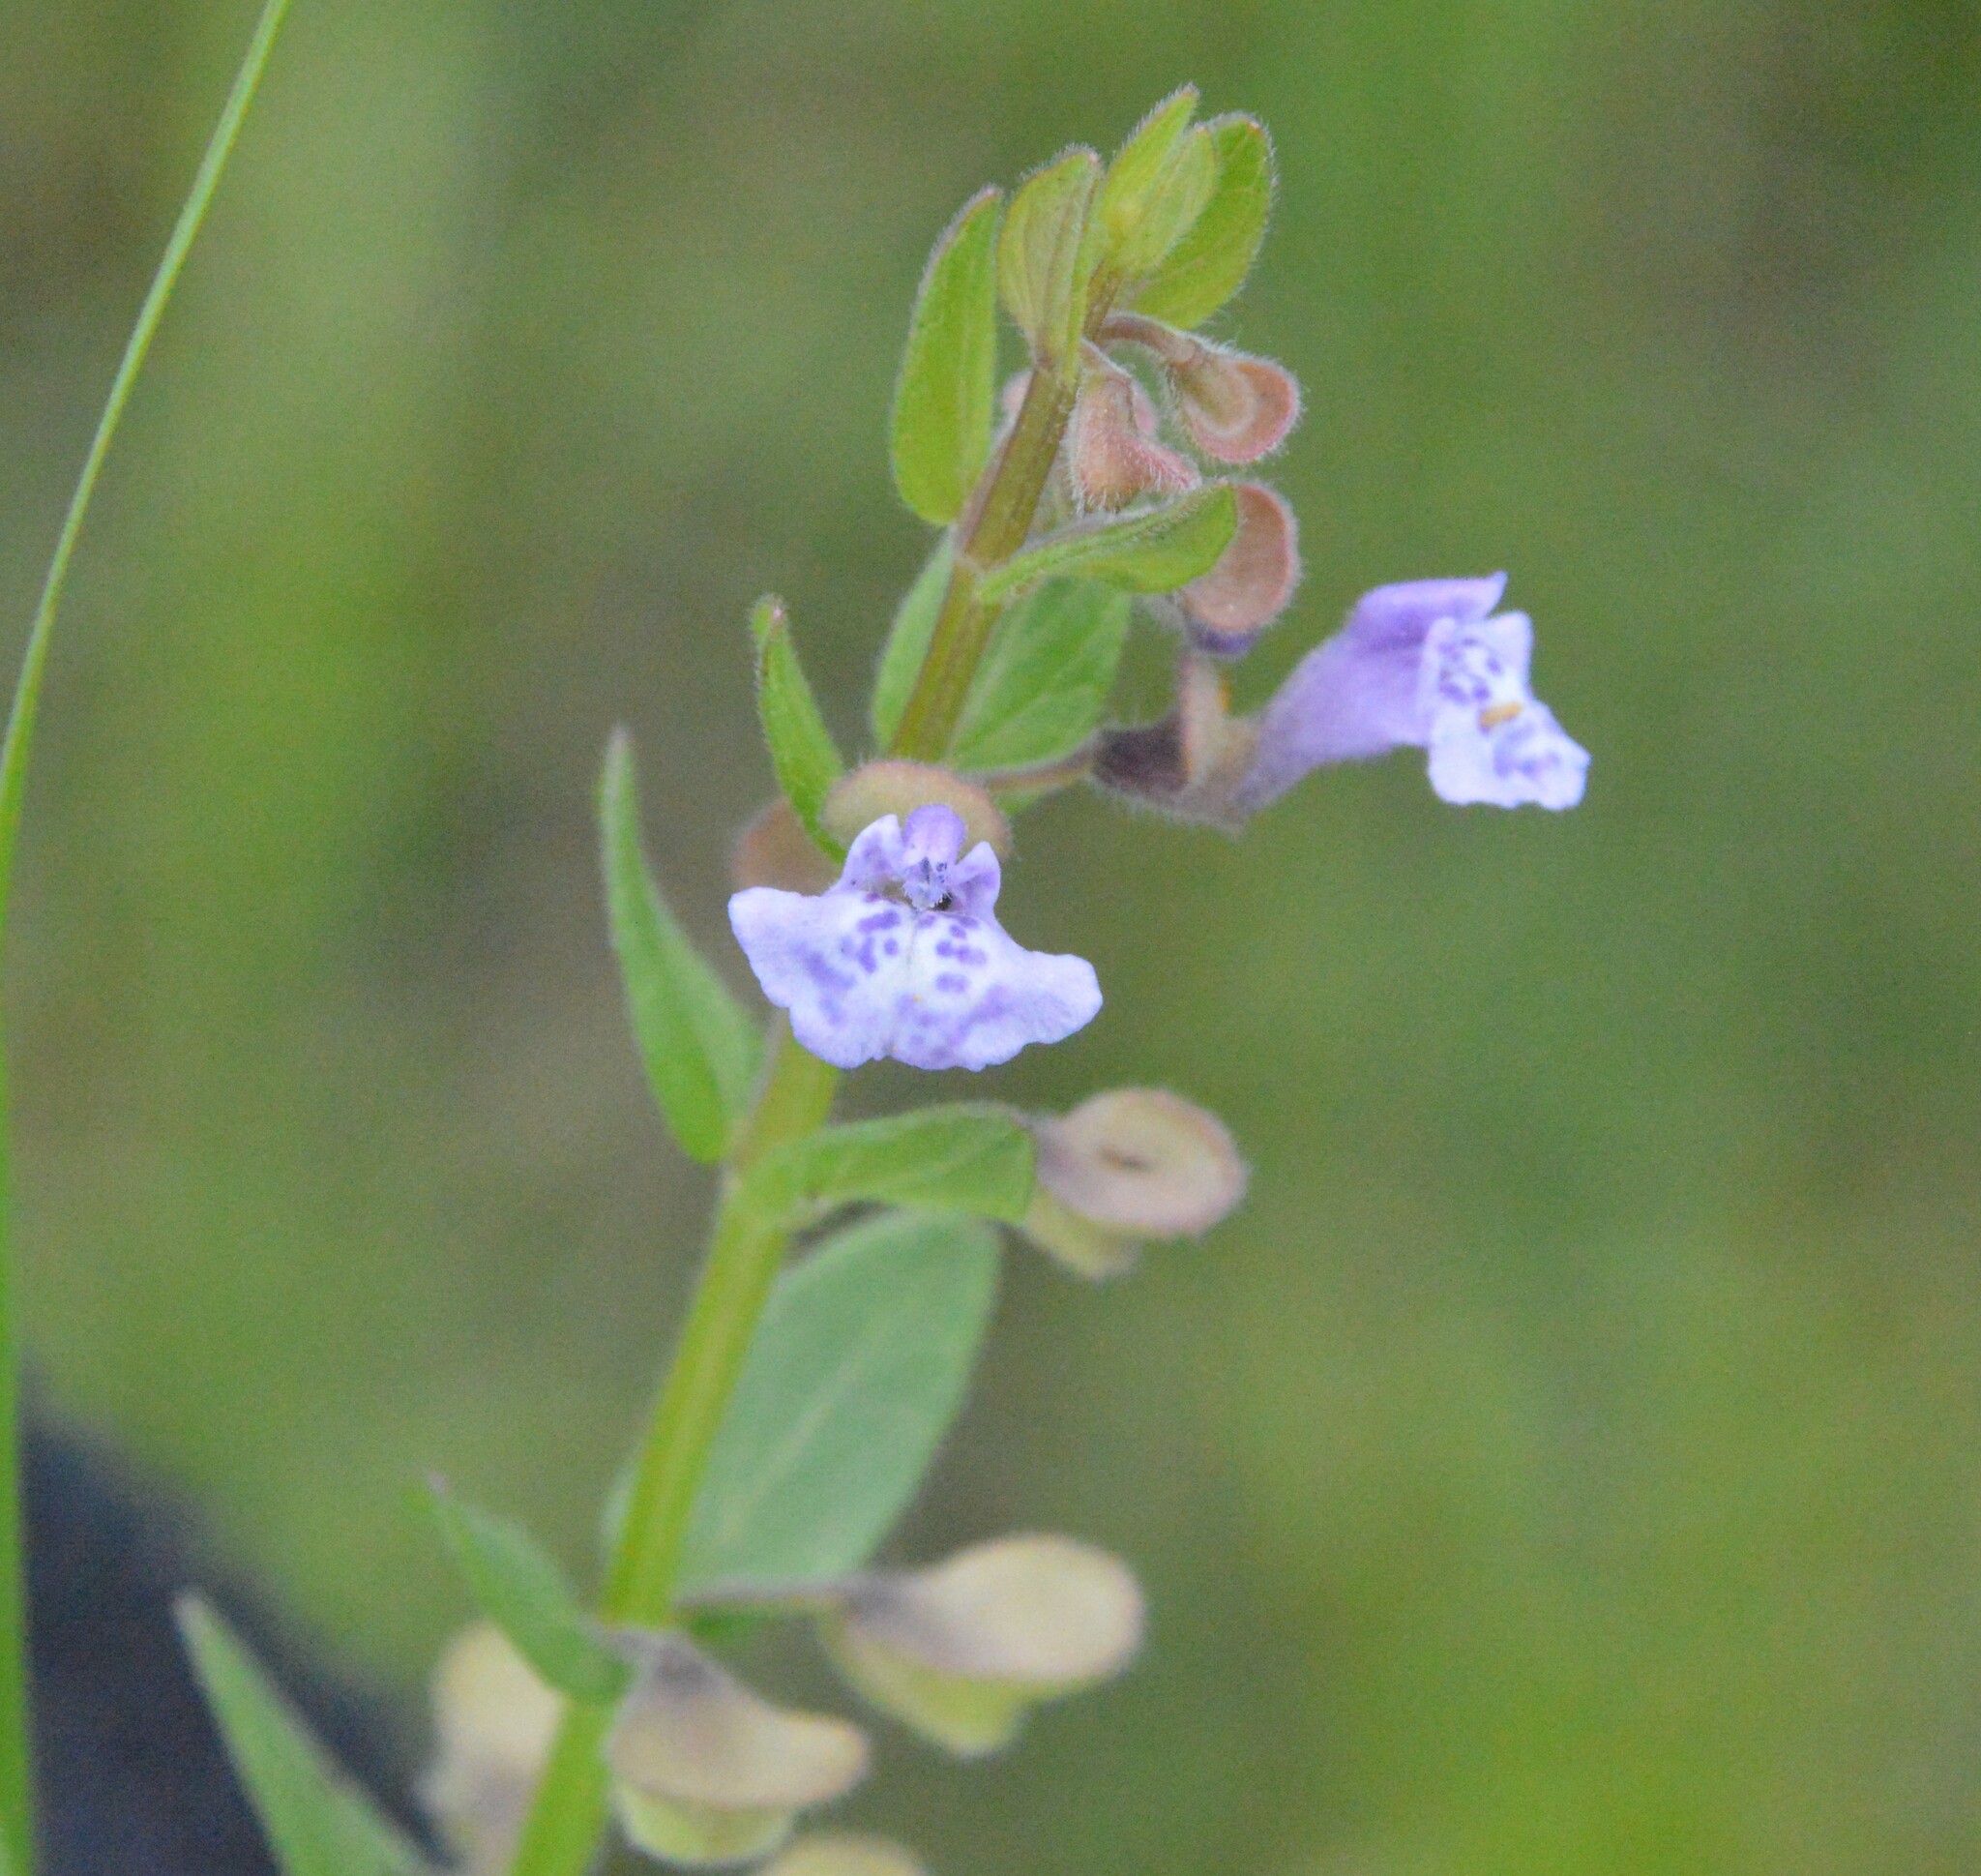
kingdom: Plantae
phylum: Tracheophyta
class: Magnoliopsida
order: Lamiales
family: Lamiaceae
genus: Scutellaria
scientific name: Scutellaria parvula
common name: Little scullcap
